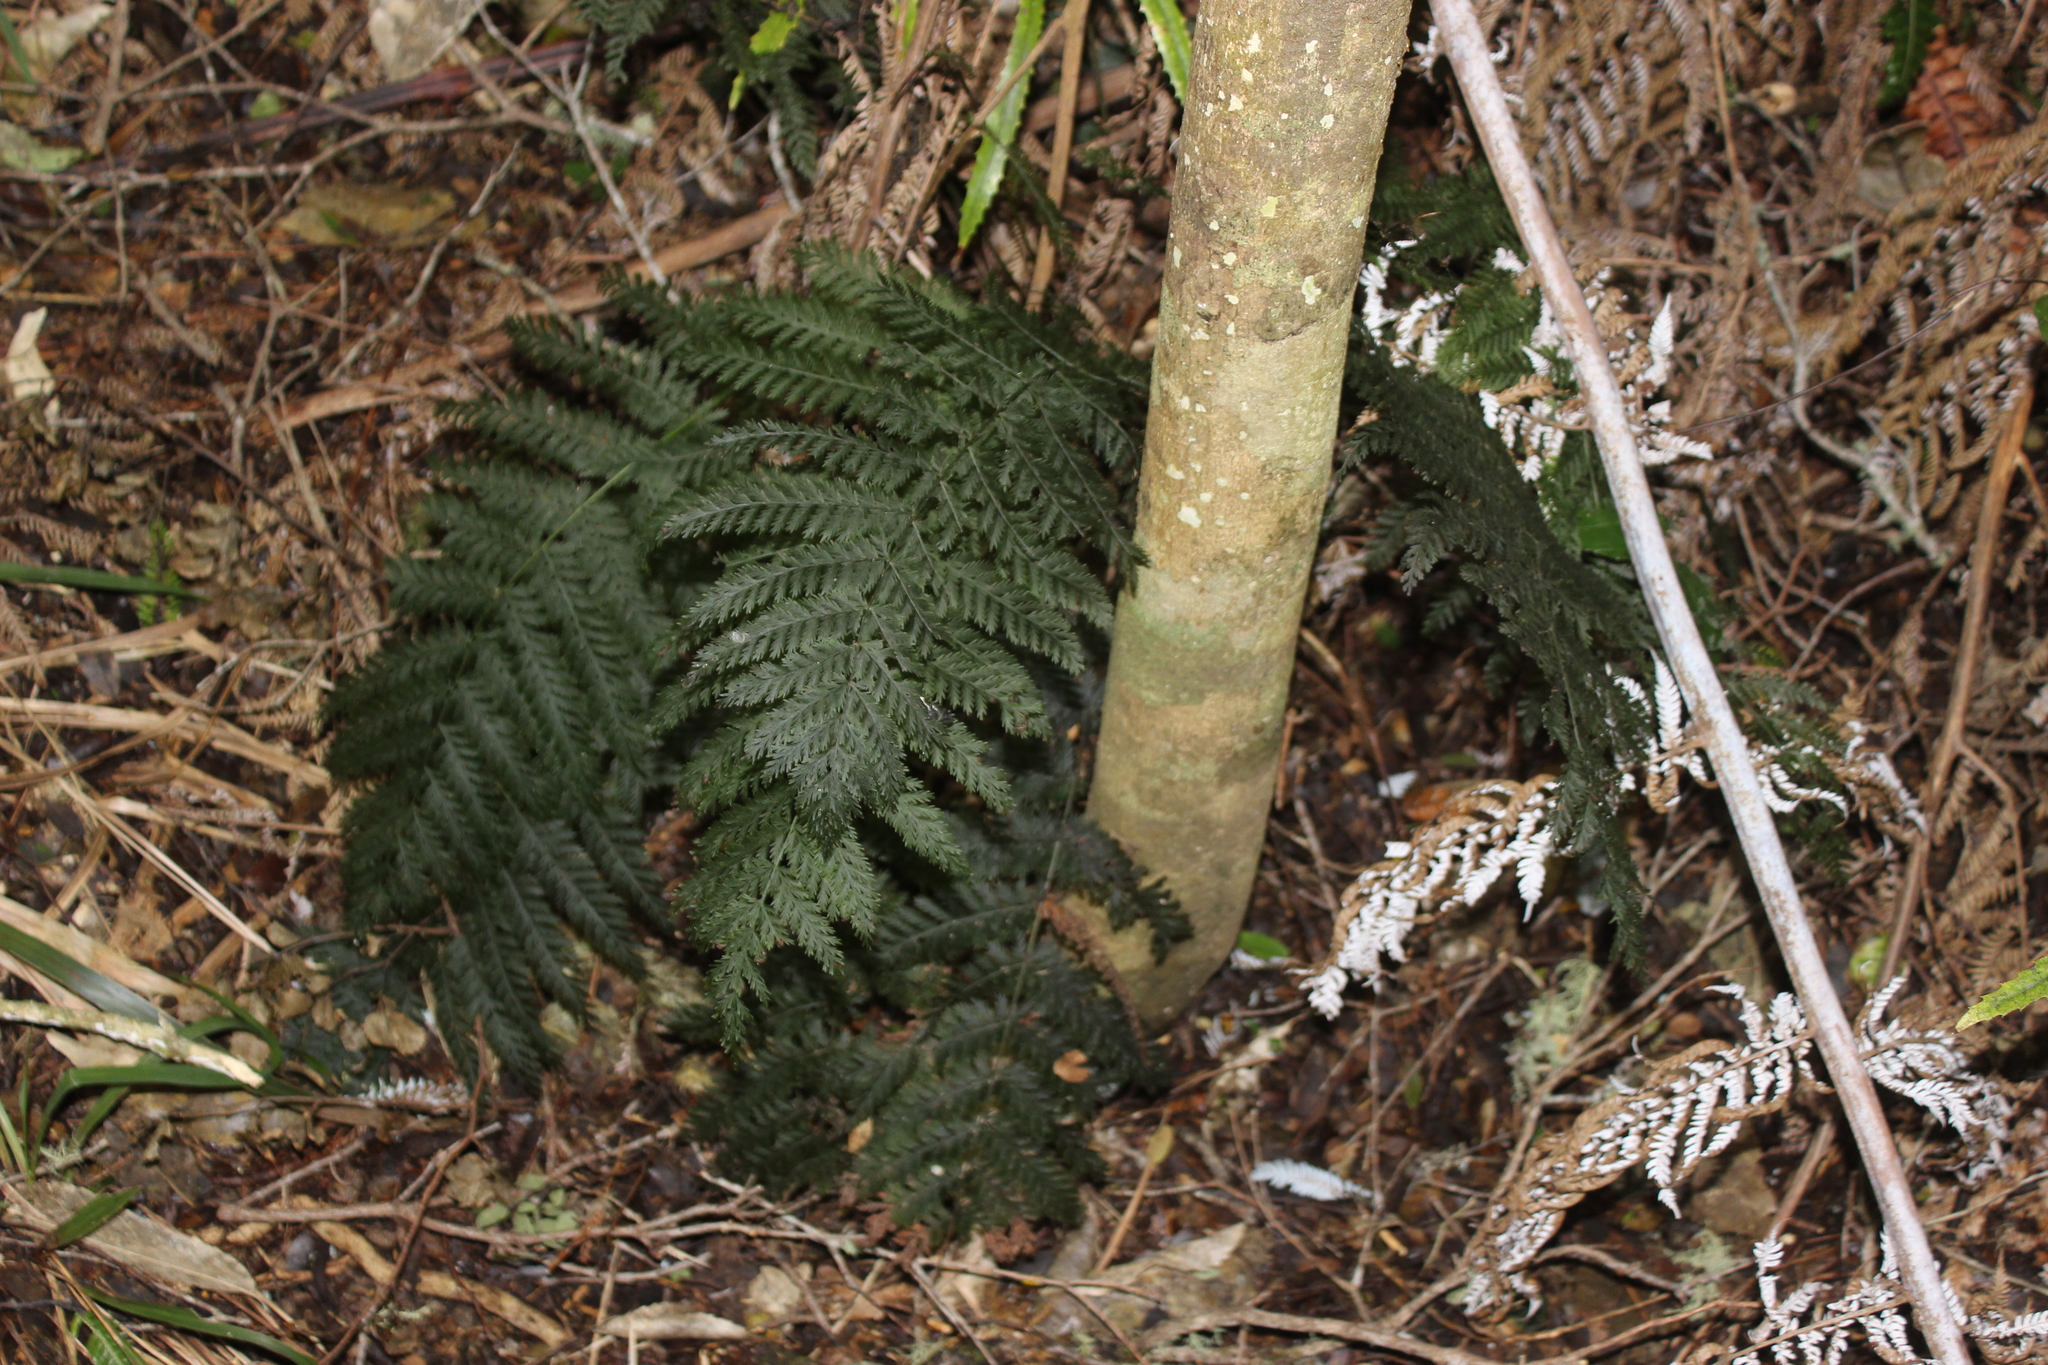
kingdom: Plantae
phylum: Tracheophyta
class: Polypodiopsida
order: Osmundales
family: Osmundaceae
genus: Leptopteris
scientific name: Leptopteris hymenophylloides
